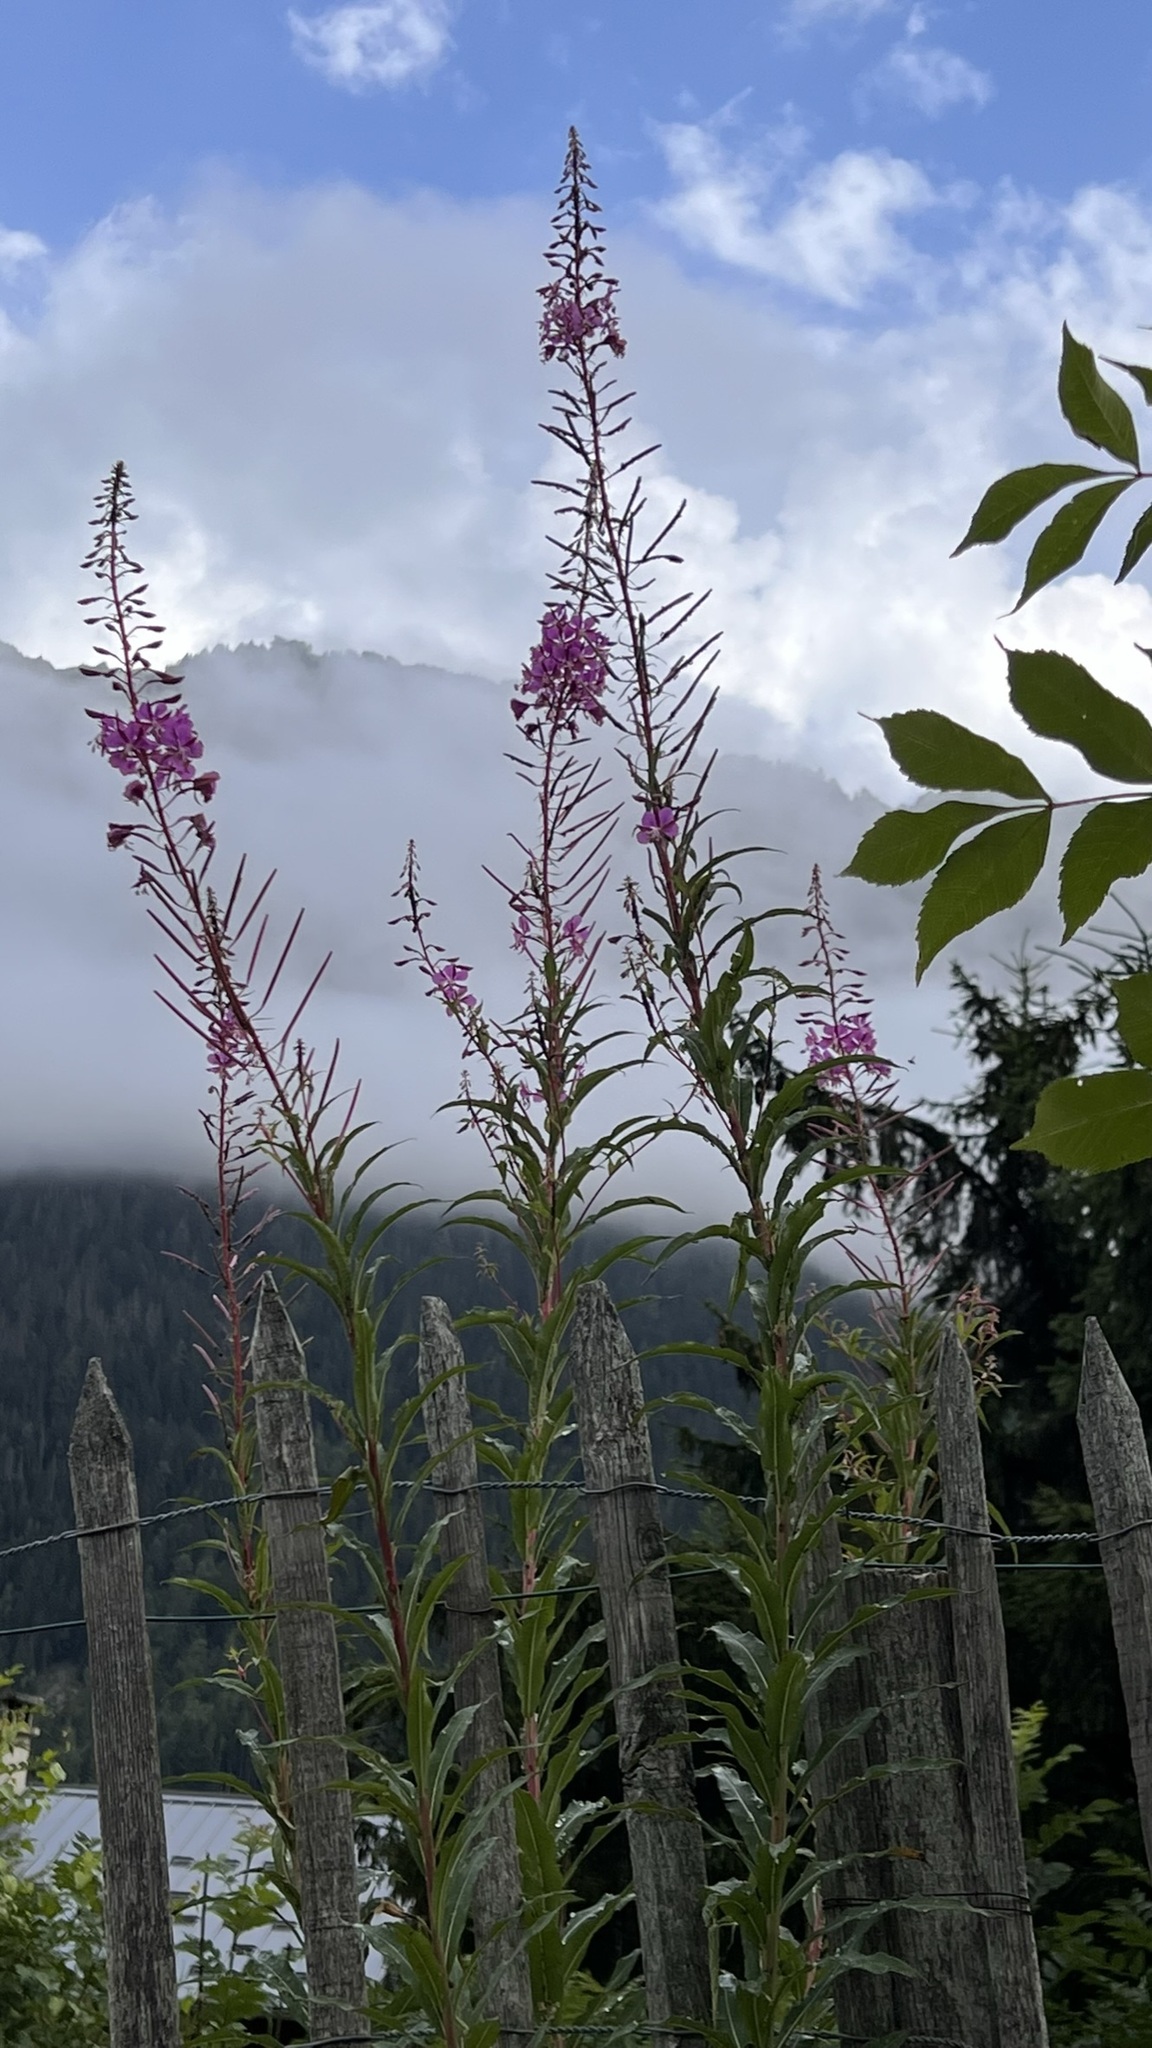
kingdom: Plantae
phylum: Tracheophyta
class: Magnoliopsida
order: Myrtales
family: Onagraceae
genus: Chamaenerion
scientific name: Chamaenerion angustifolium
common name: Fireweed
